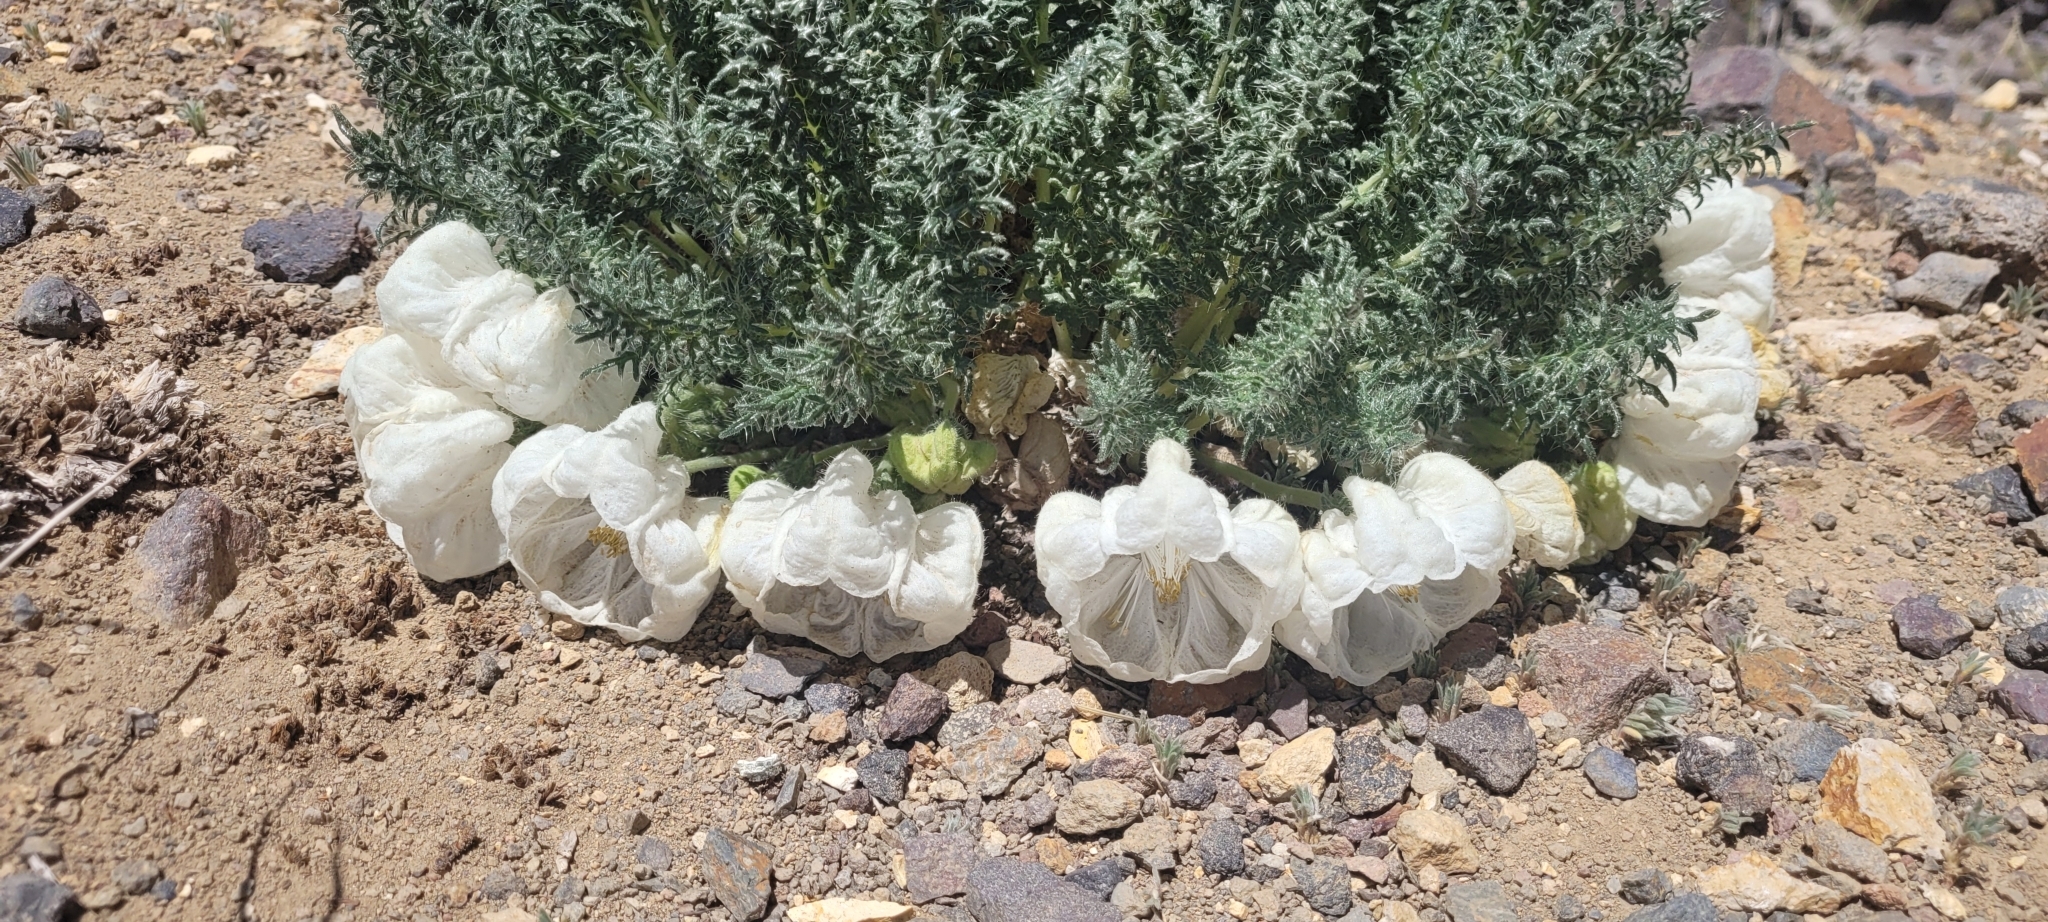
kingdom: Plantae
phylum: Tracheophyta
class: Magnoliopsida
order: Cornales
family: Loasaceae
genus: Caiophora
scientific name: Caiophora coronata
